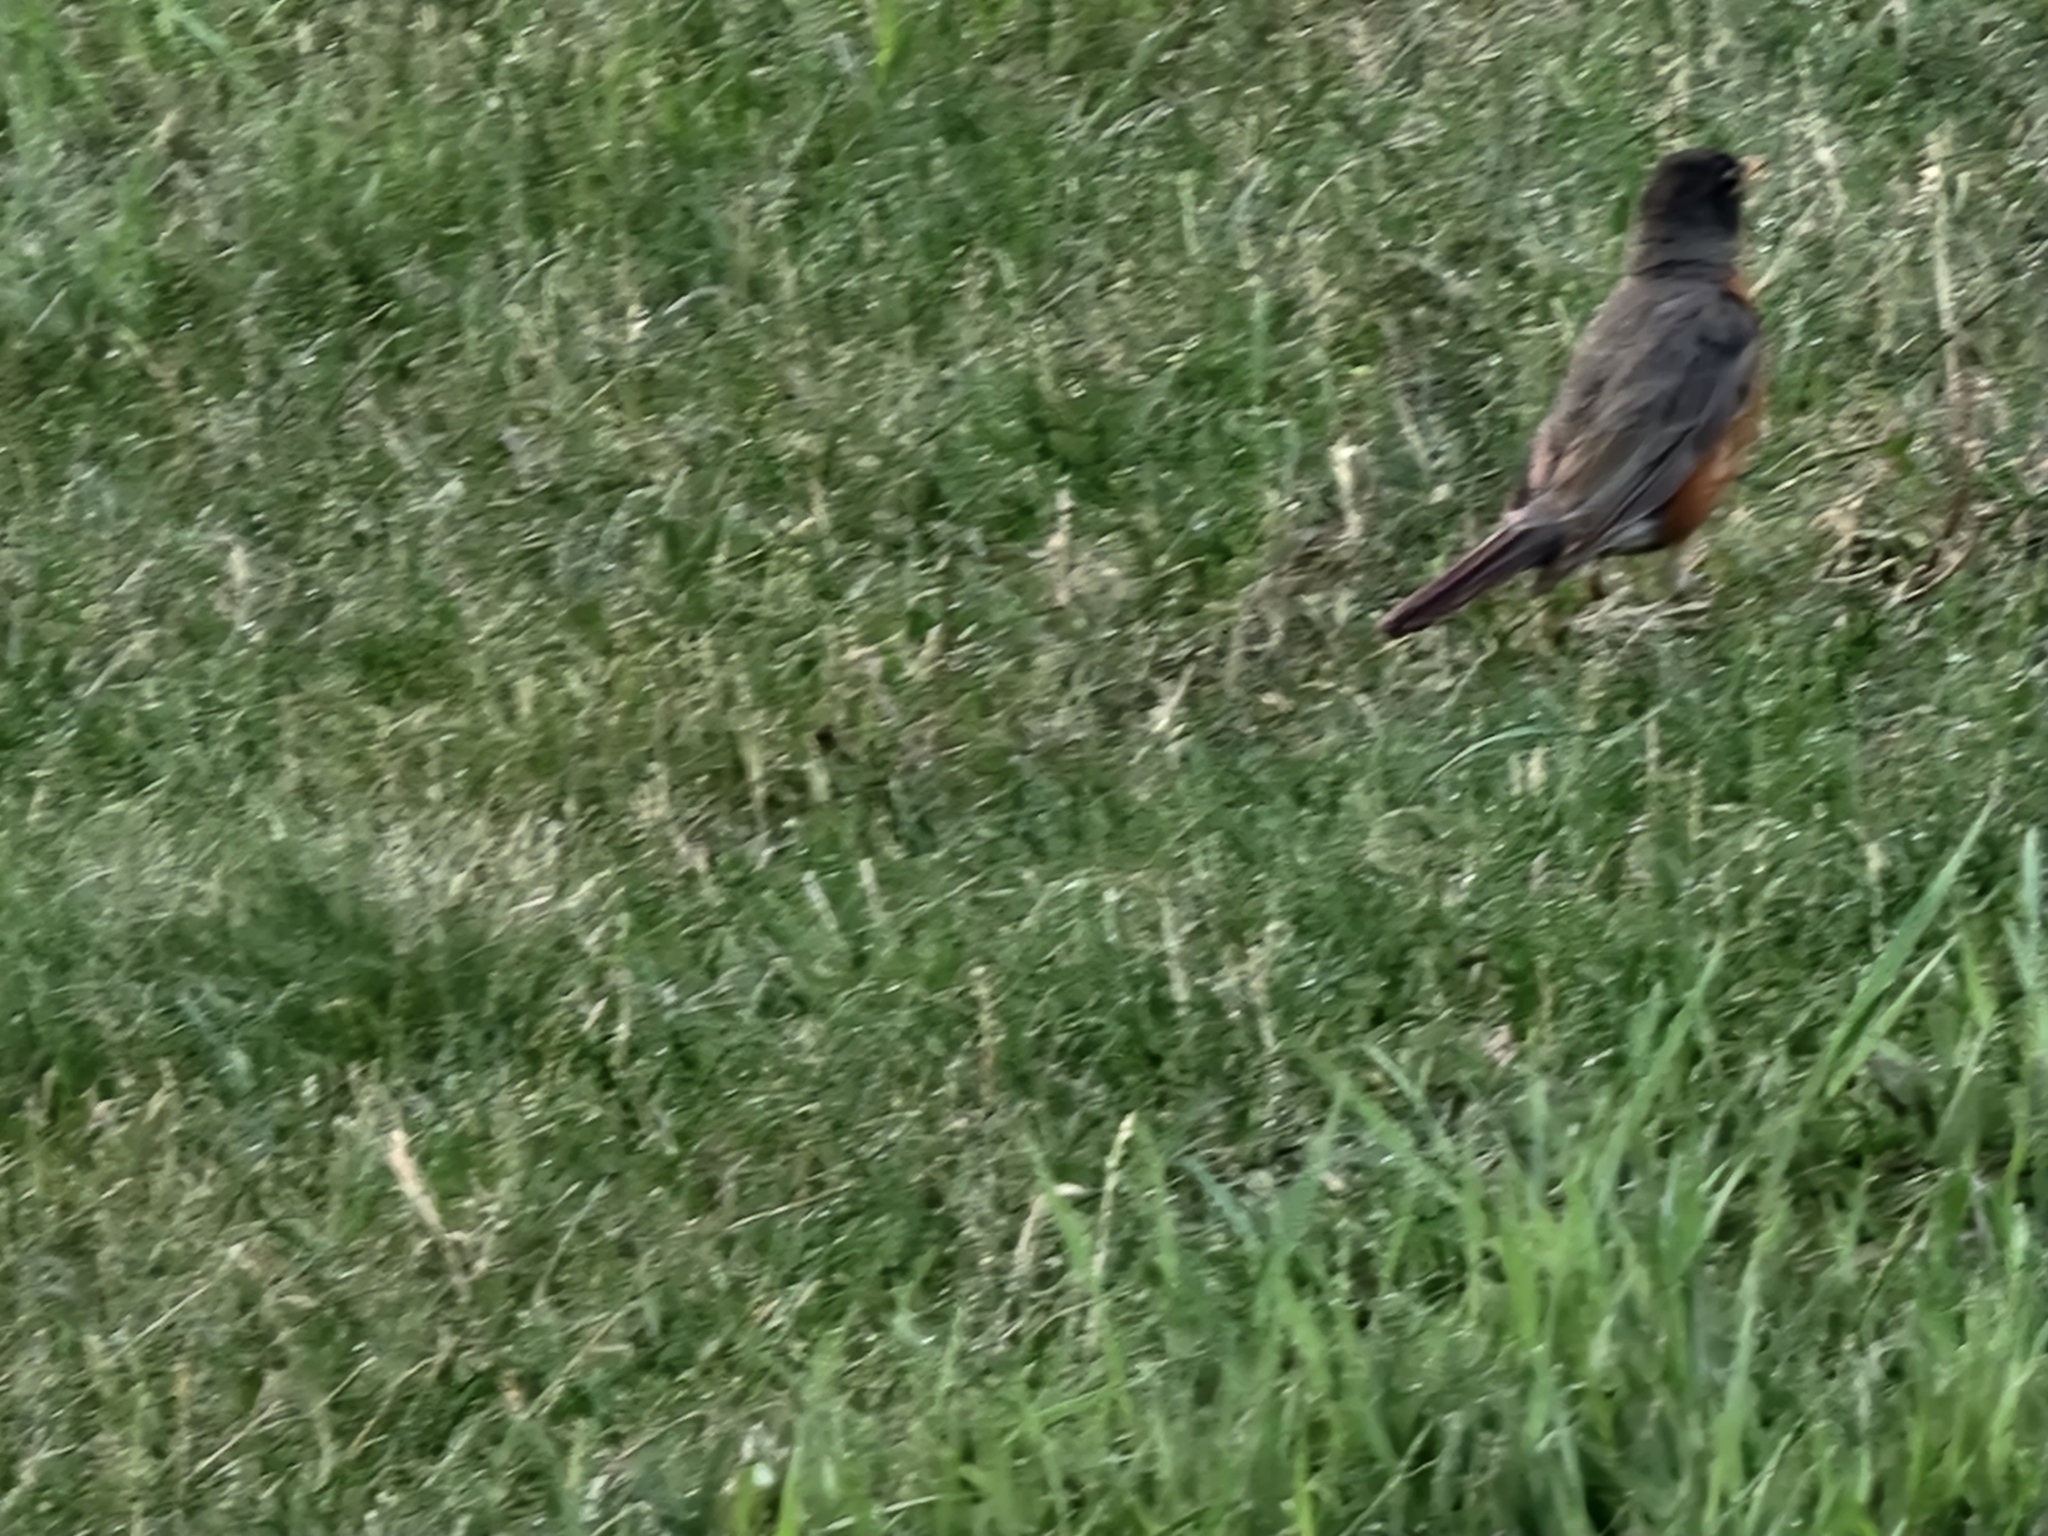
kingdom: Animalia
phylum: Chordata
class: Aves
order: Passeriformes
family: Turdidae
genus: Turdus
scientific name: Turdus migratorius
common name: American robin
